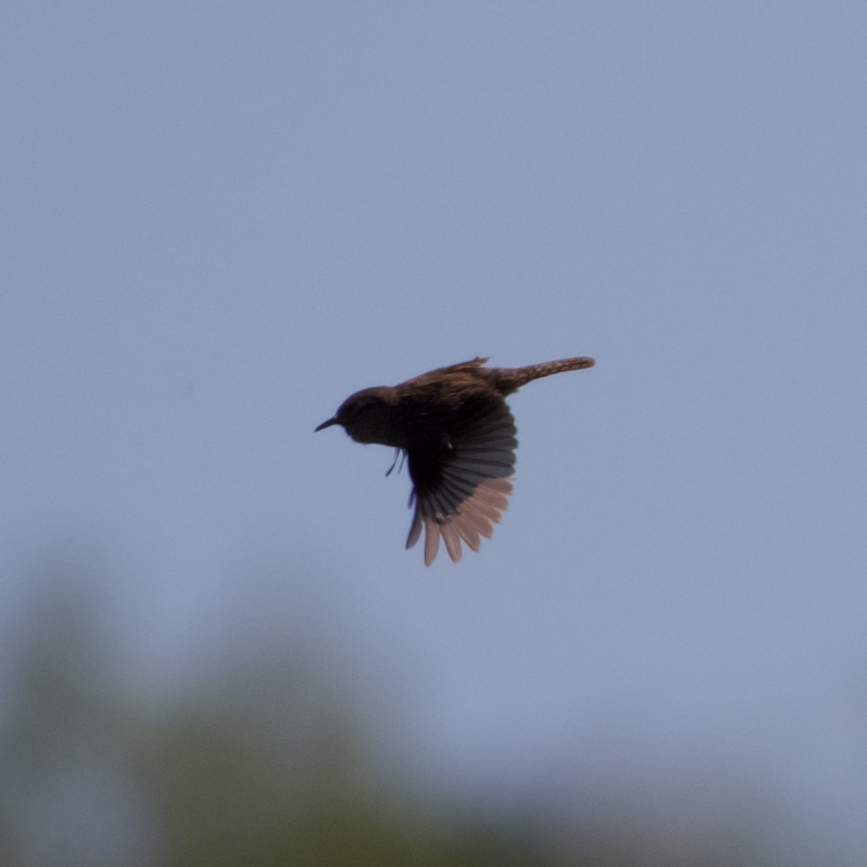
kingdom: Animalia
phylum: Chordata
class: Aves
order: Passeriformes
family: Troglodytidae
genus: Cistothorus
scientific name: Cistothorus palustris
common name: Marsh wren
